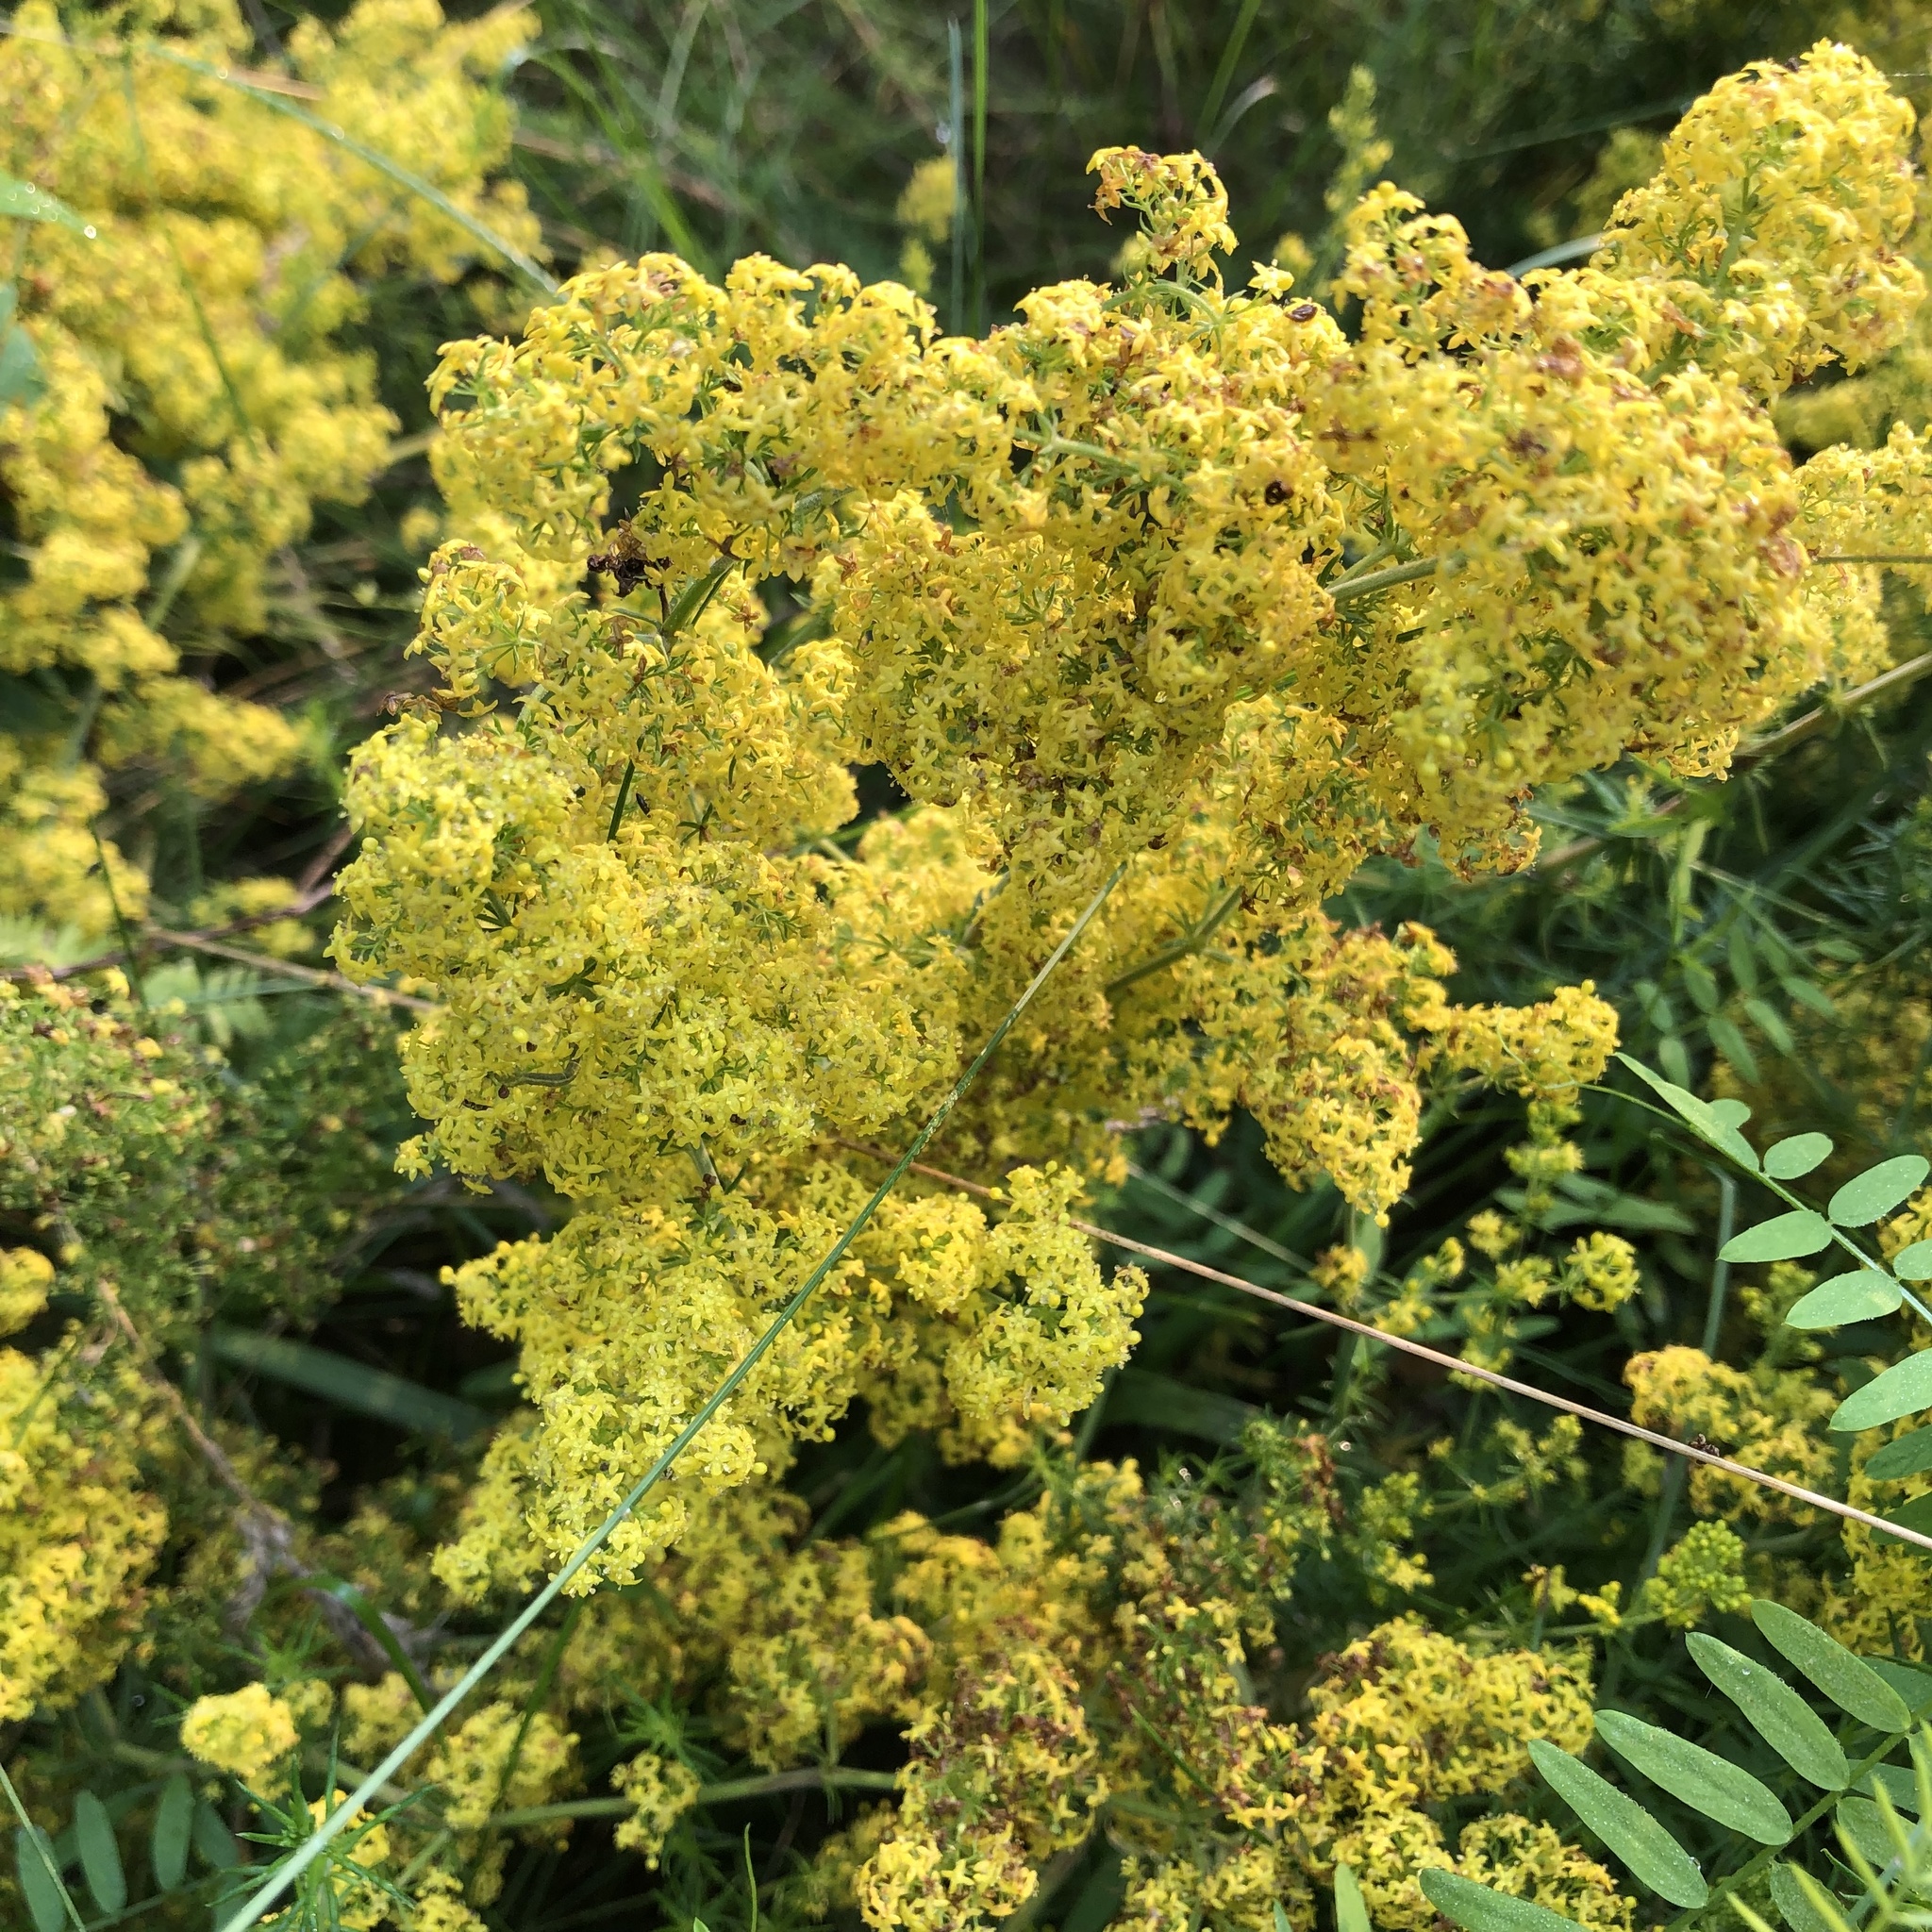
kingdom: Plantae
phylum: Tracheophyta
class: Magnoliopsida
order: Gentianales
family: Rubiaceae
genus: Galium
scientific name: Galium verum
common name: Lady's bedstraw
